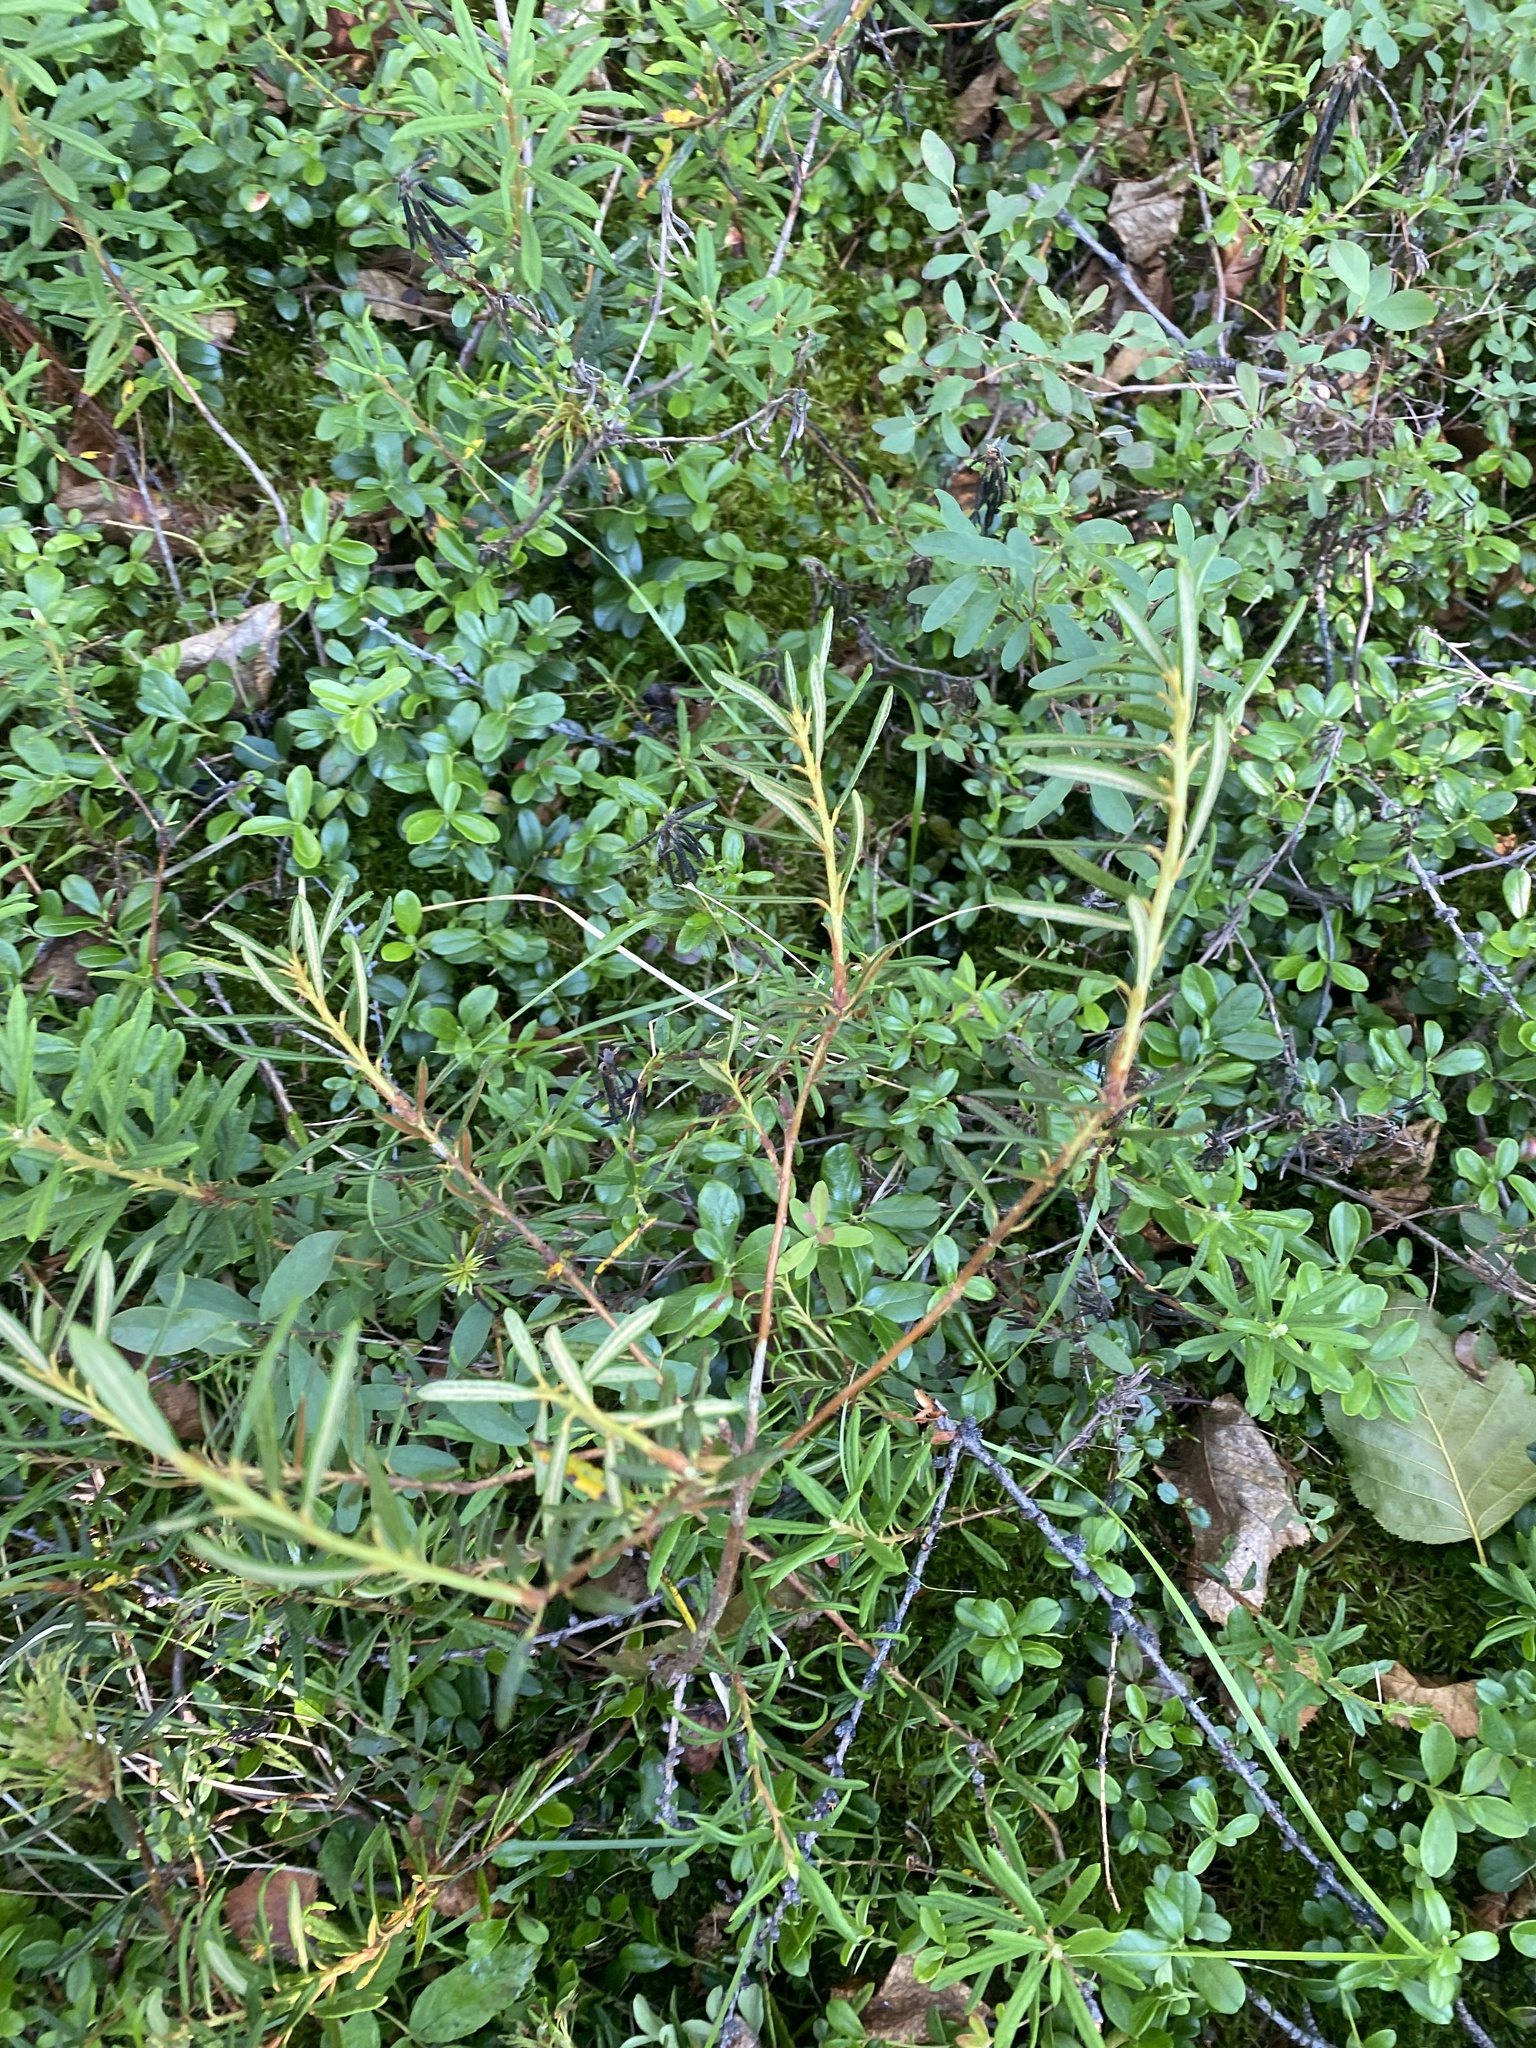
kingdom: Plantae
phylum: Tracheophyta
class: Magnoliopsida
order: Ericales
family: Ericaceae
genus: Rhododendron
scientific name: Rhododendron tomentosum
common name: Marsh labrador tea
